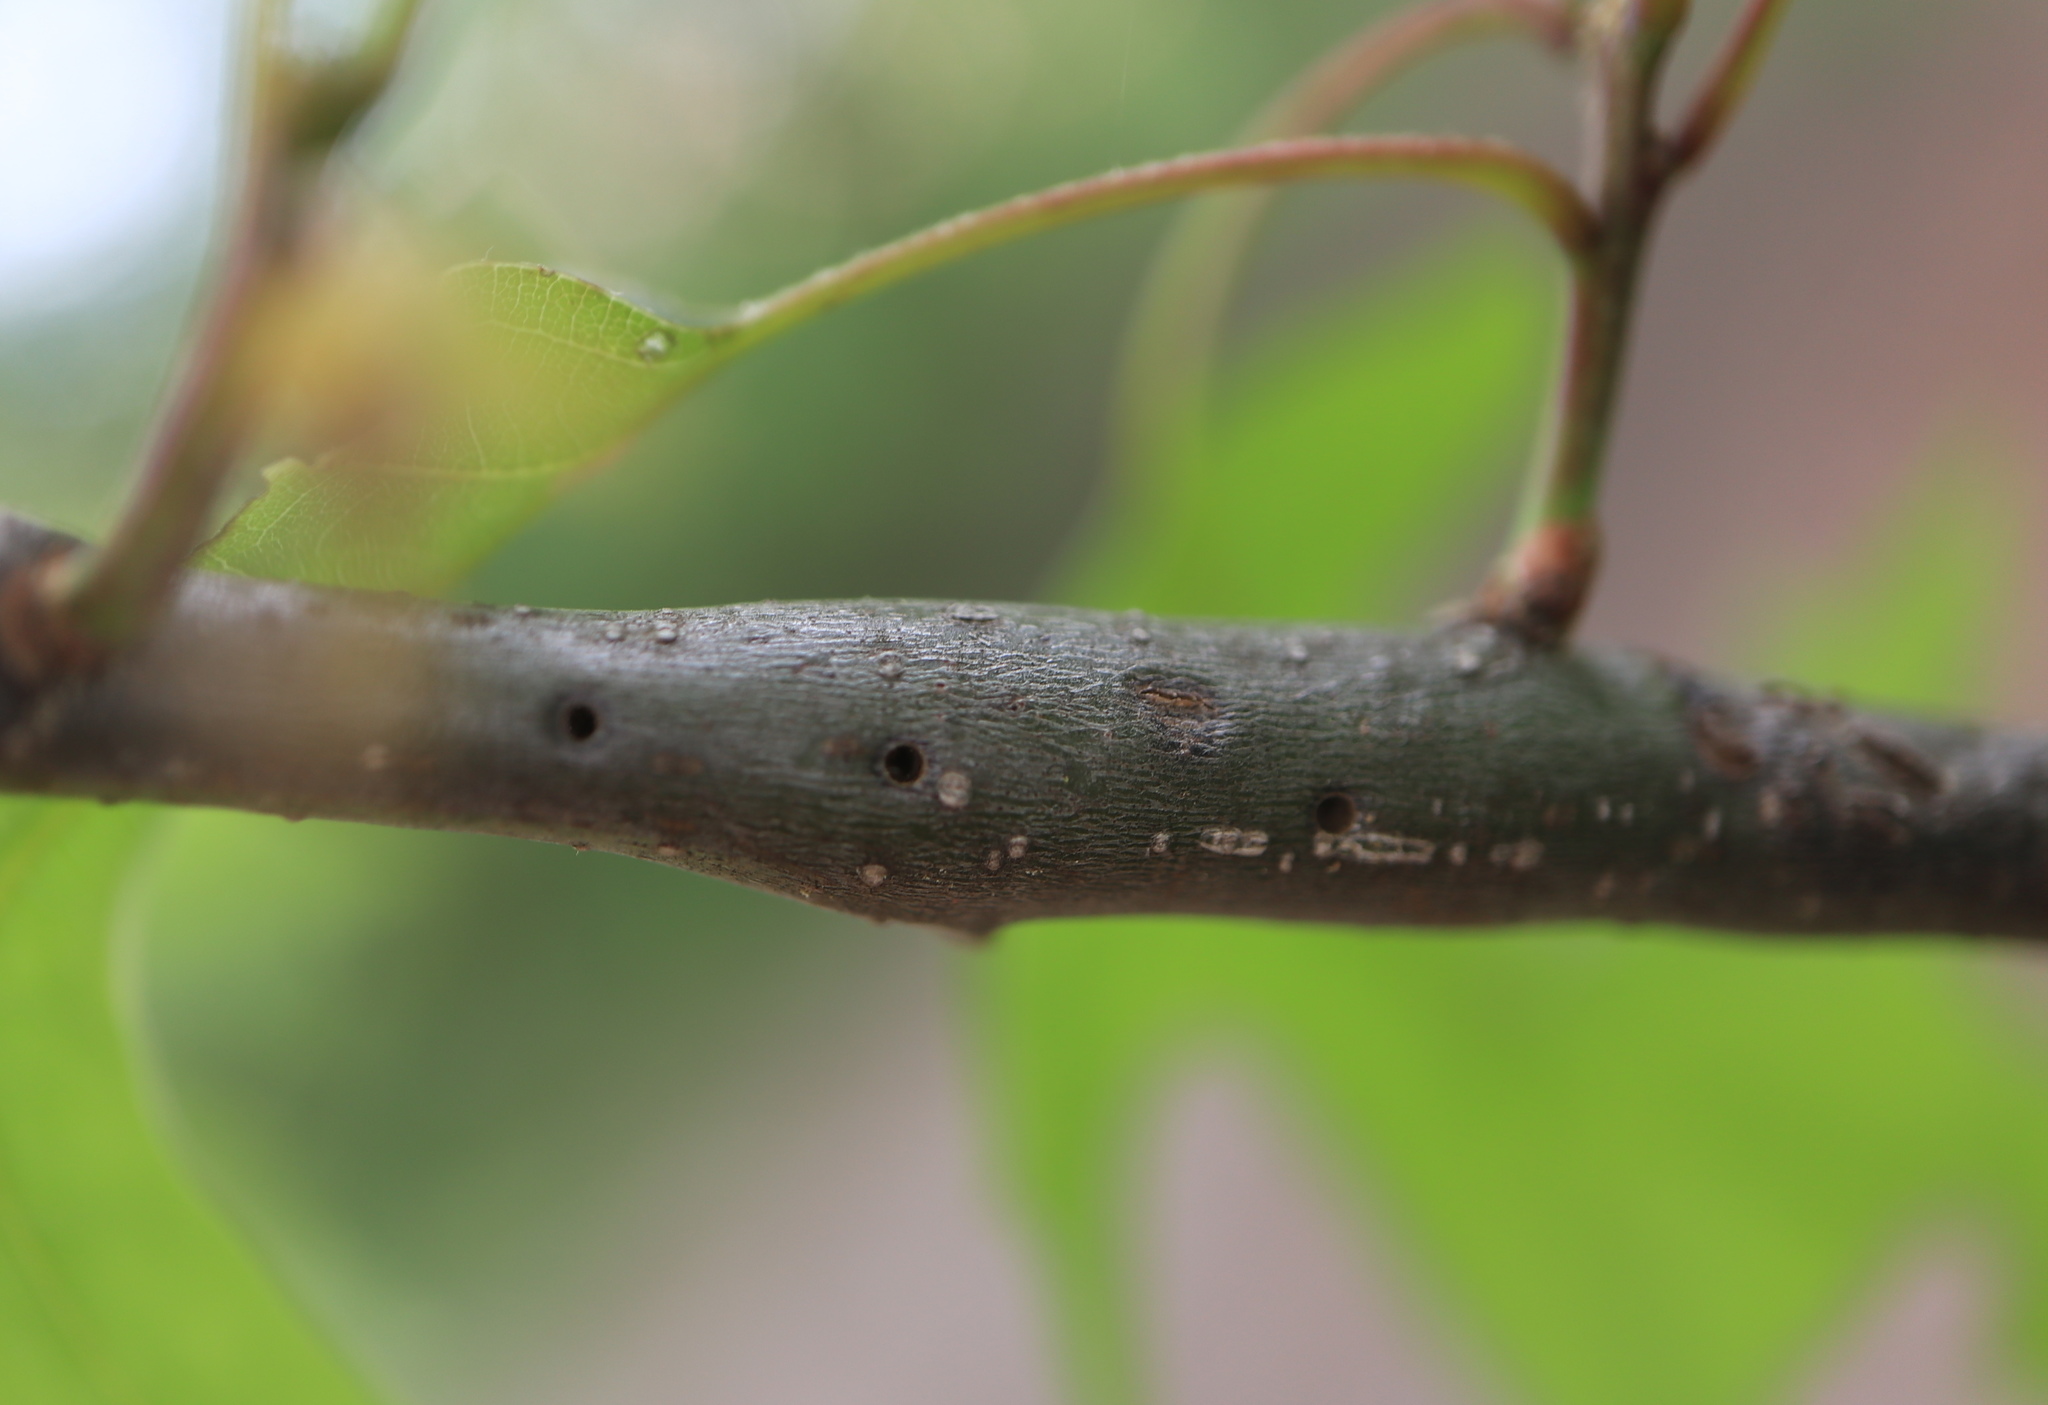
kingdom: Animalia
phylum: Arthropoda
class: Insecta
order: Hymenoptera
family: Cynipidae
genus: Callirhytis
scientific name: Callirhytis
